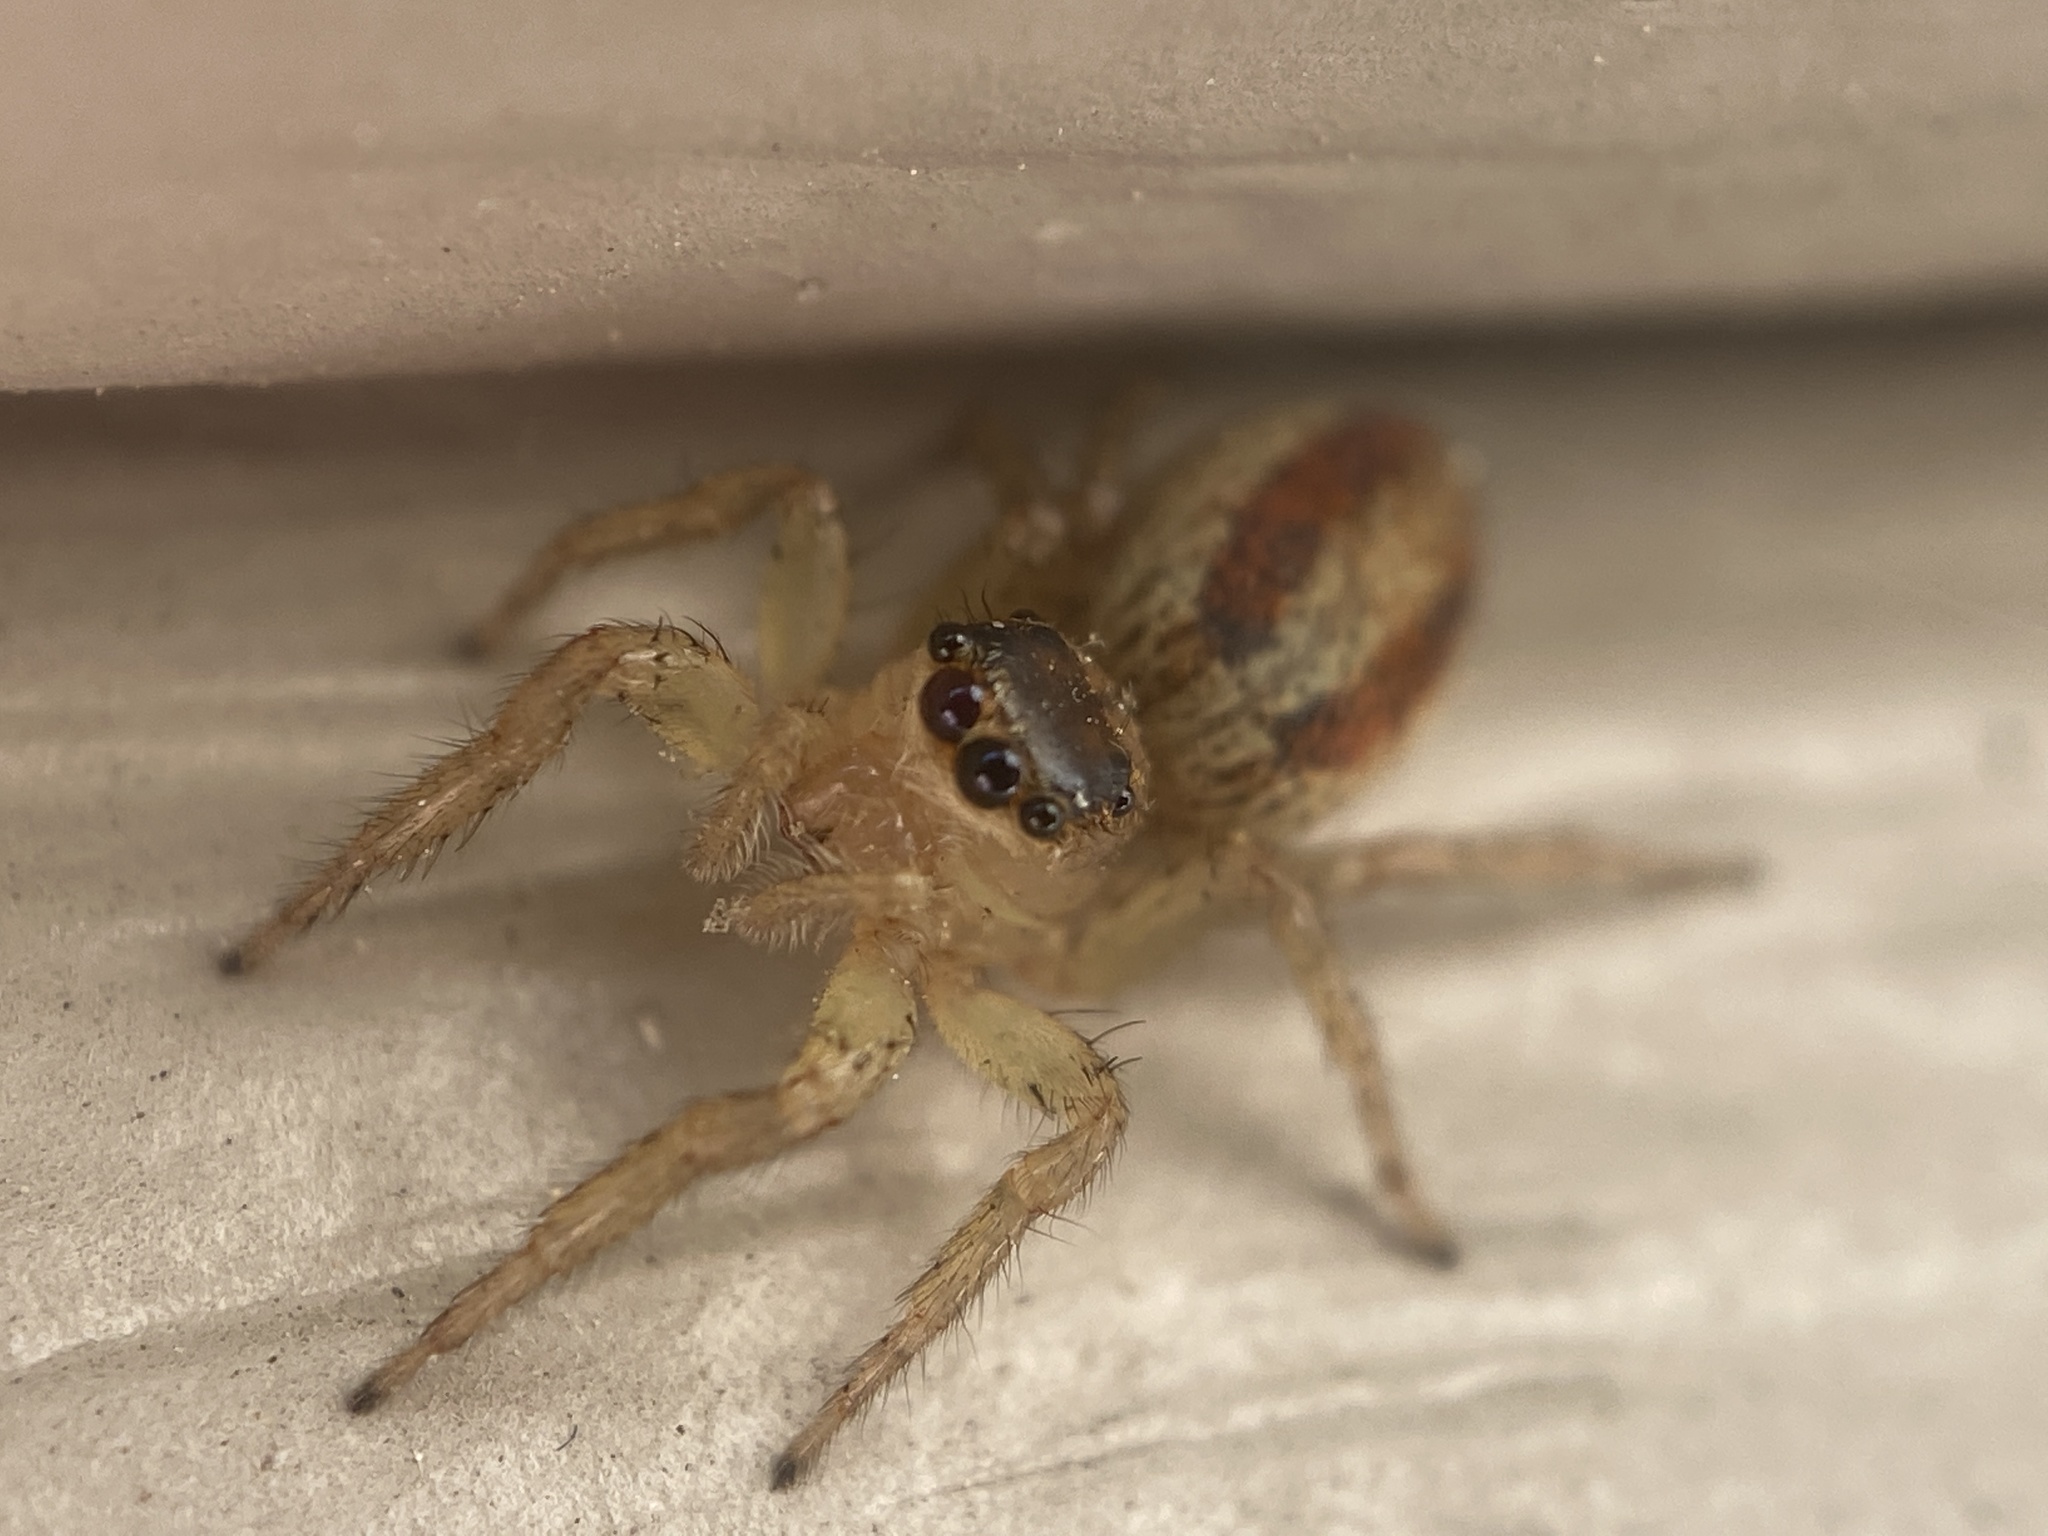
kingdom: Animalia
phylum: Arthropoda
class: Arachnida
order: Araneae
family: Salticidae
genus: Maevia
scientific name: Maevia inclemens
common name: Dimorphic jumper
